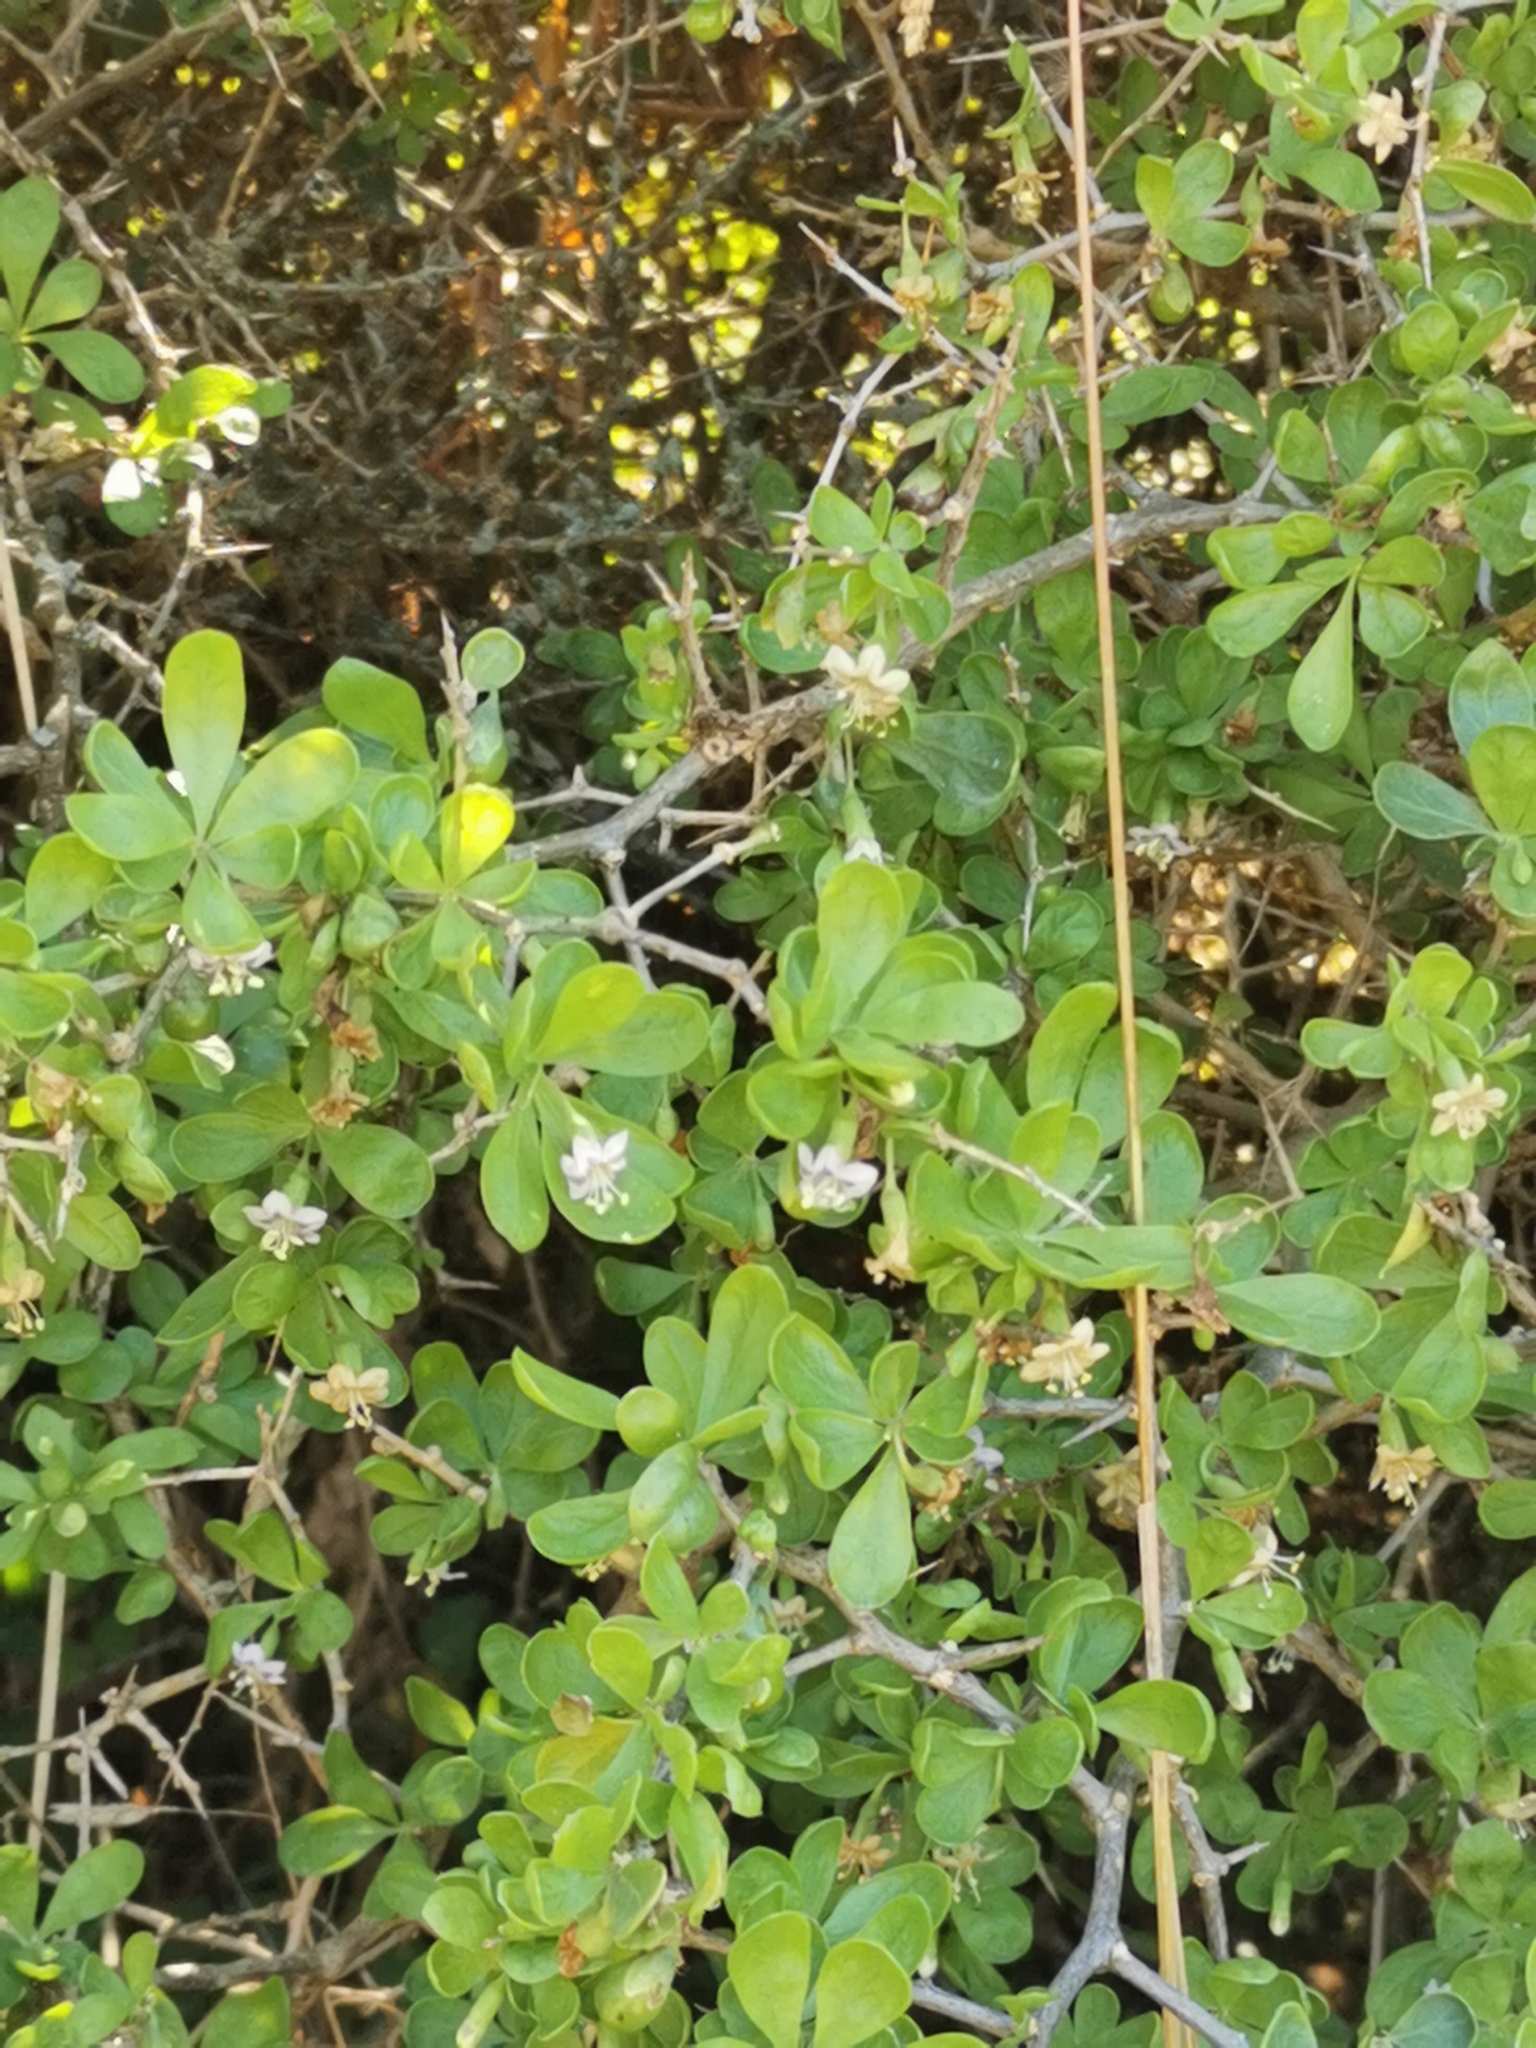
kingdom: Plantae
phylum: Tracheophyta
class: Magnoliopsida
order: Solanales
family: Solanaceae
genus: Lycium
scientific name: Lycium ferocissimum
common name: African boxthorn
